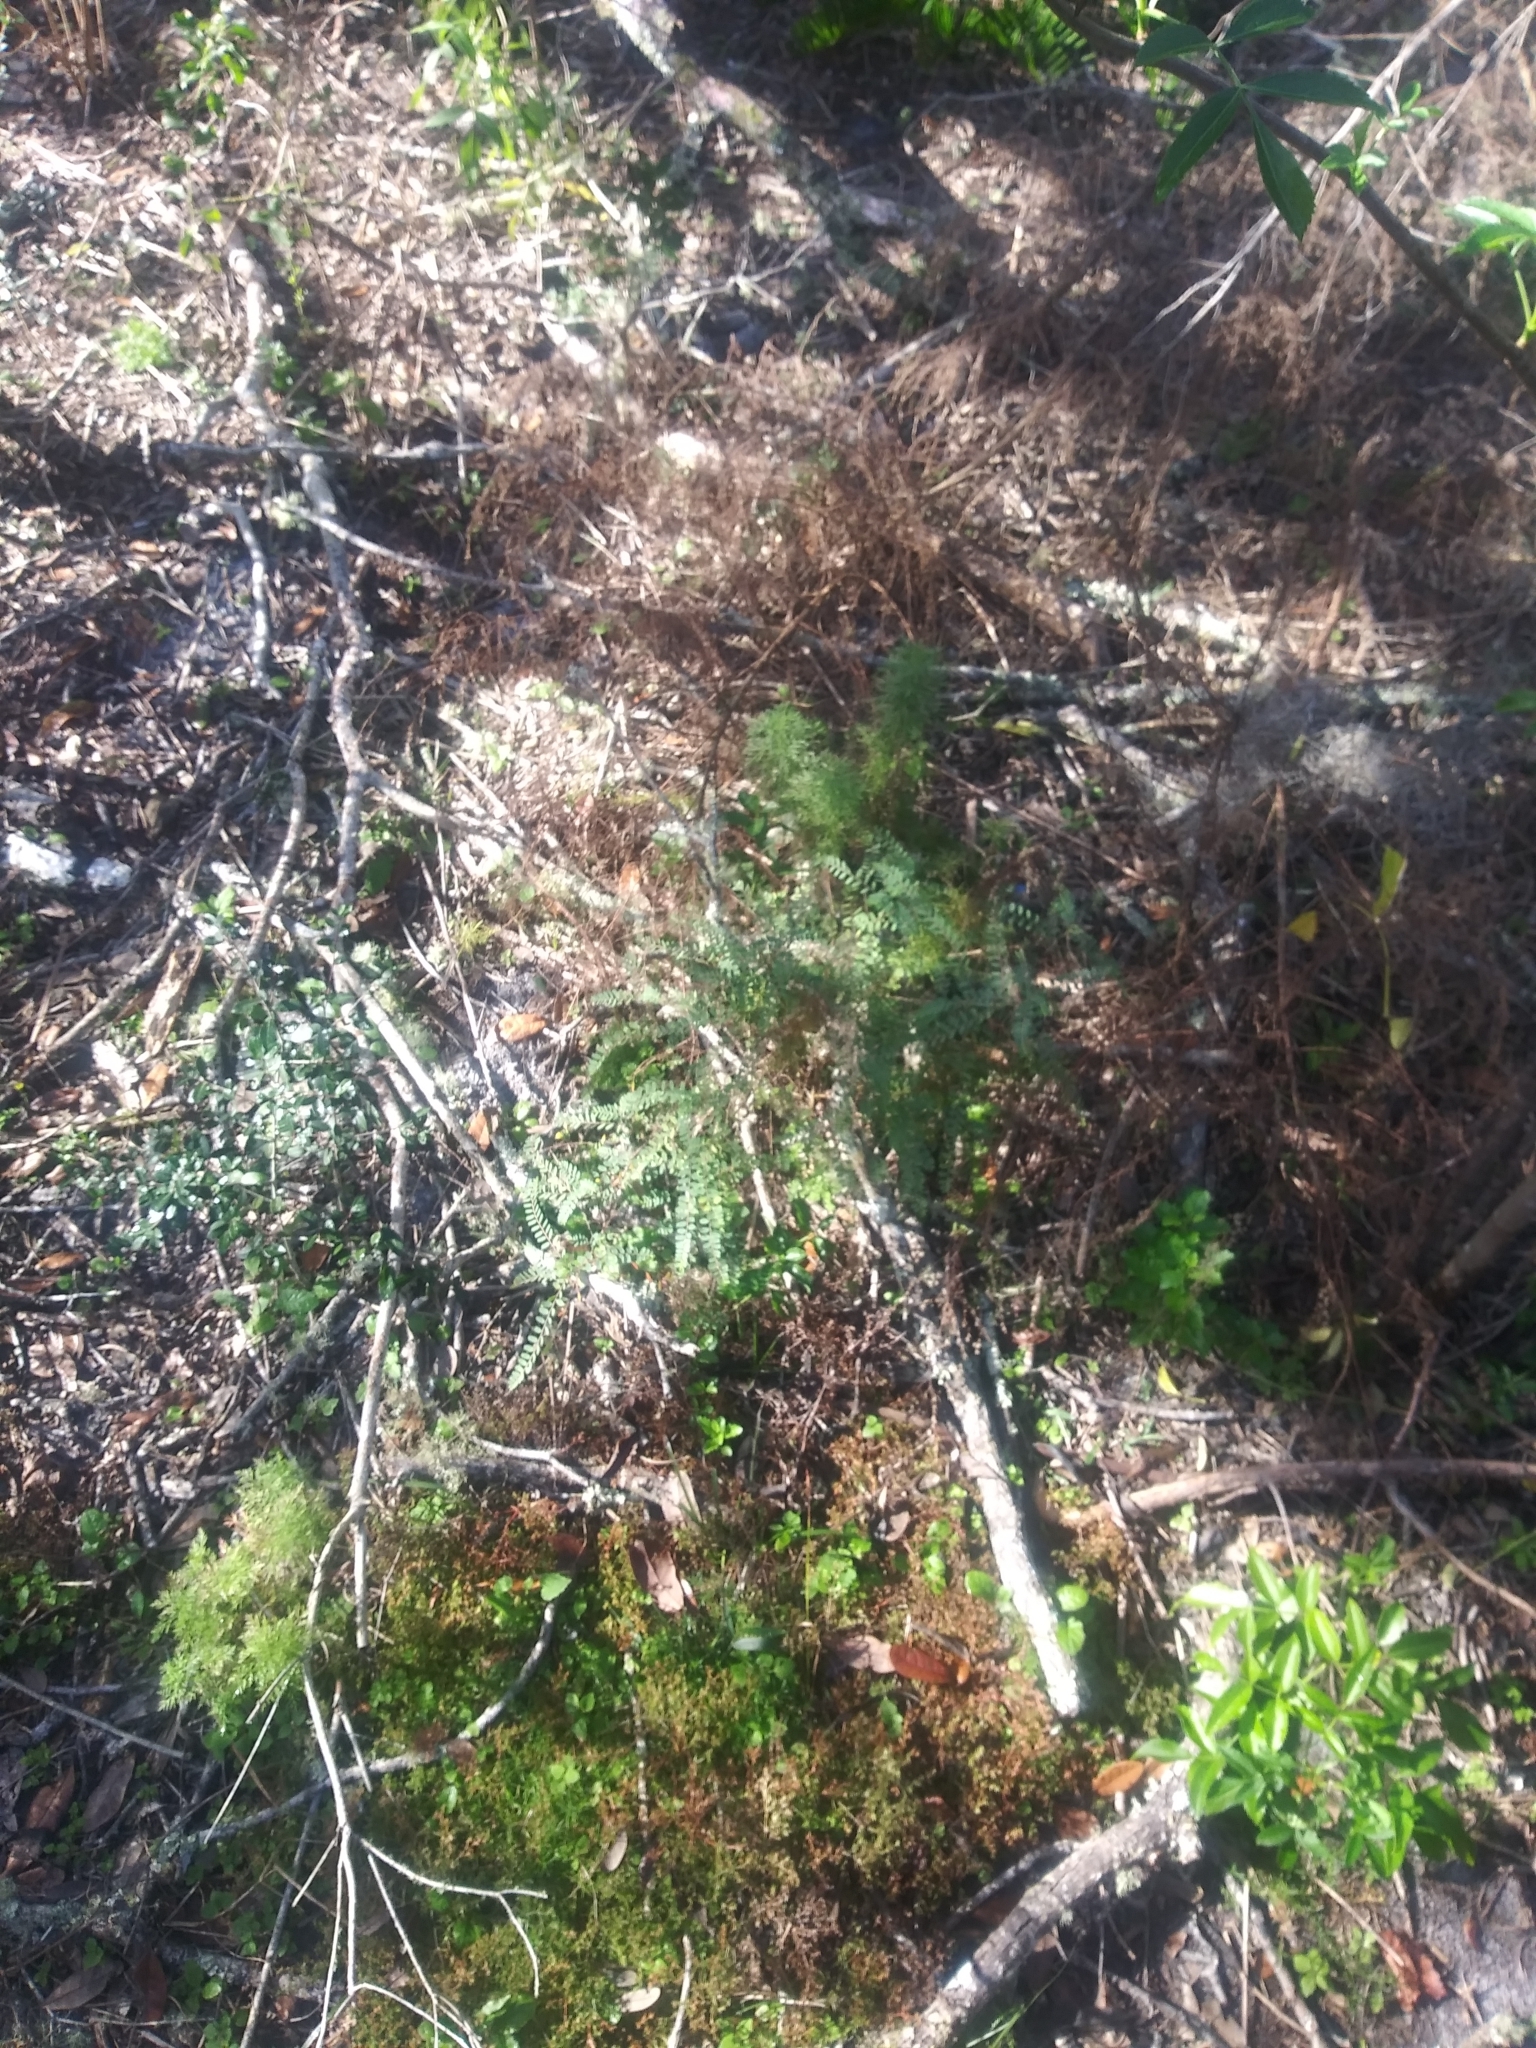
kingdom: Plantae
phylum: Tracheophyta
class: Magnoliopsida
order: Malpighiales
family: Phyllanthaceae
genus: Phyllanthus
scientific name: Phyllanthus tenellus
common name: Mascarene island leaf-flower
